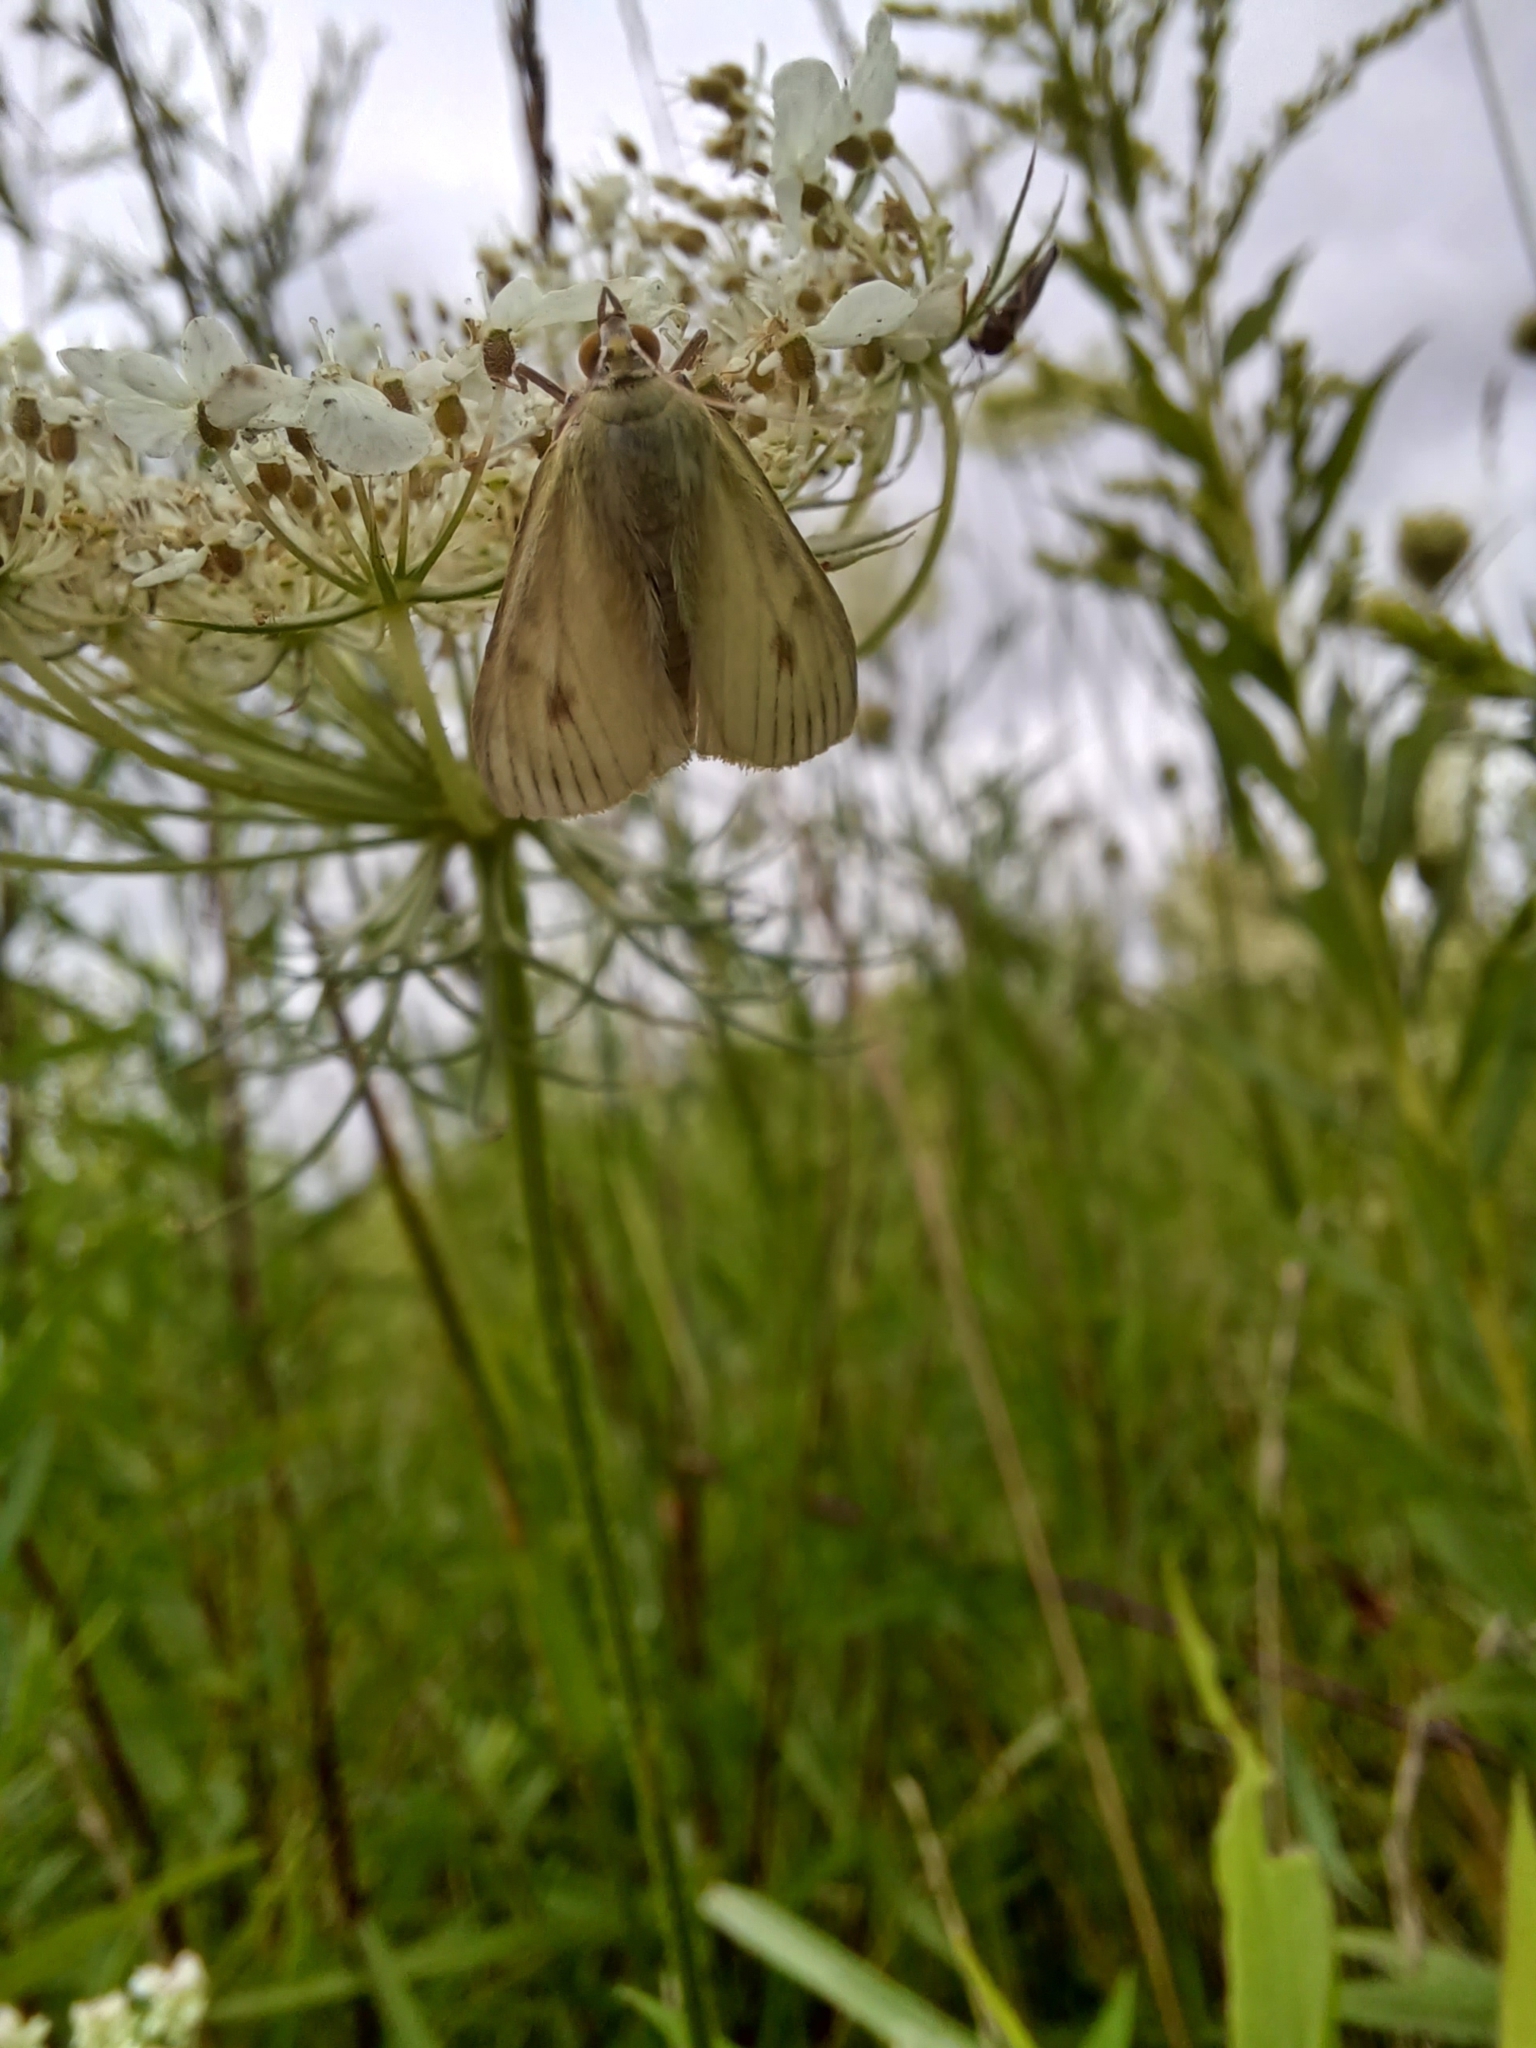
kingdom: Animalia
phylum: Arthropoda
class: Insecta
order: Lepidoptera
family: Crambidae
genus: Sitochroa
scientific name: Sitochroa palealis
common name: Greenish-yellow sitochroa moth
